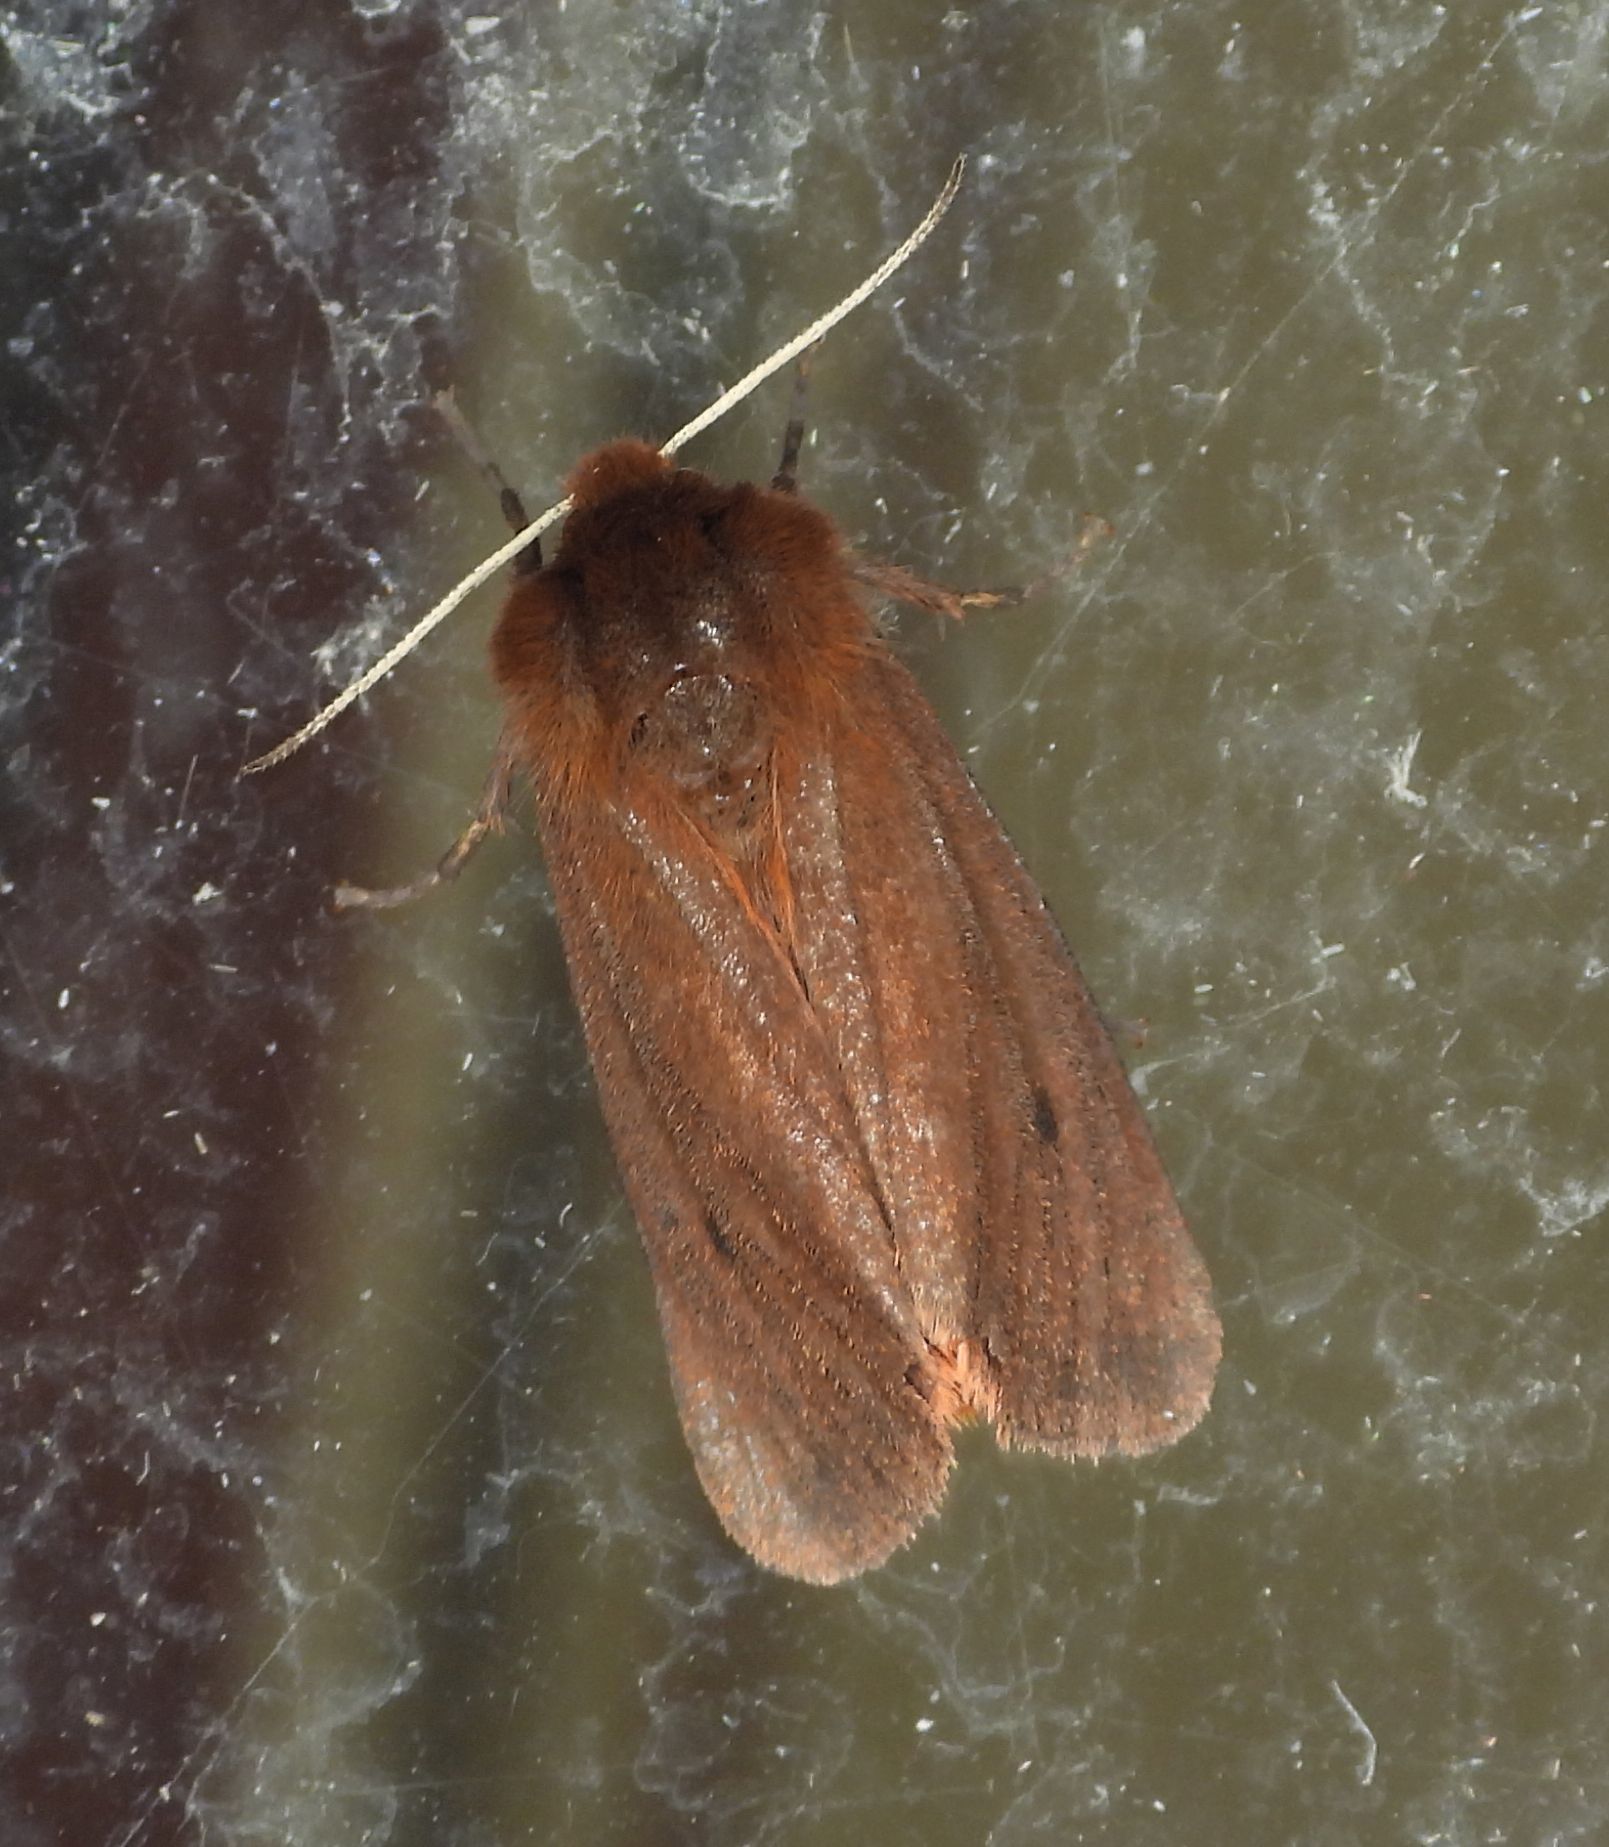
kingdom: Animalia
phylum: Arthropoda
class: Insecta
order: Lepidoptera
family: Erebidae
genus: Phragmatobia
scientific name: Phragmatobia fuliginosa
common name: Ruby tiger
